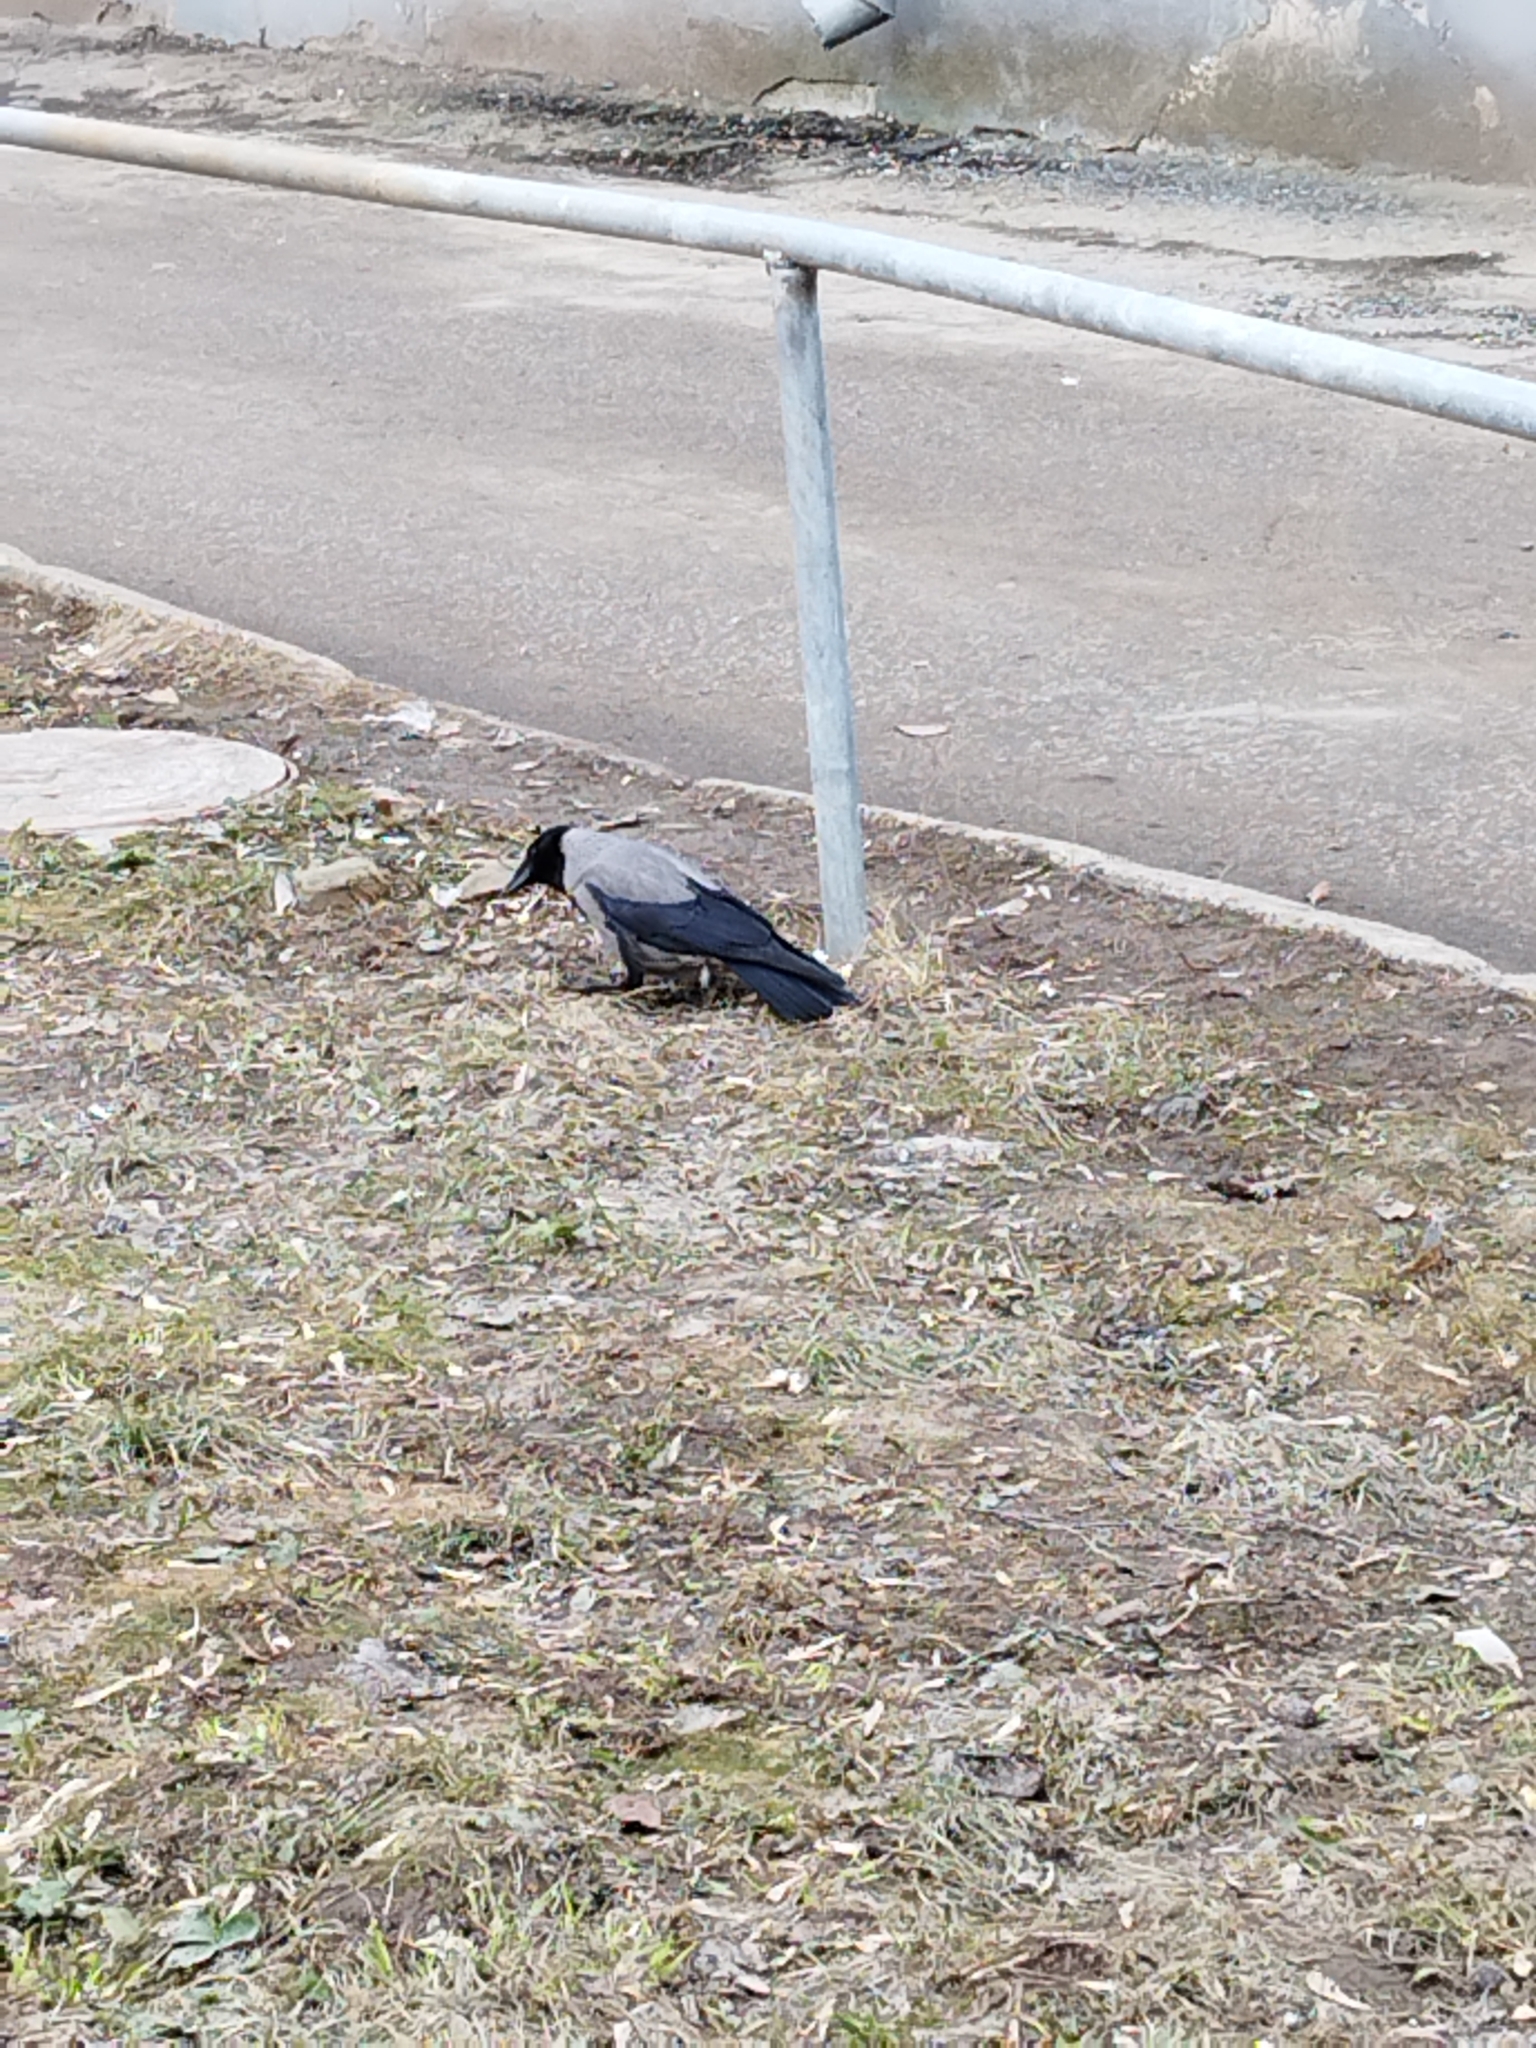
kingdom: Animalia
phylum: Chordata
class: Aves
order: Passeriformes
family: Corvidae
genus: Corvus
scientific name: Corvus cornix
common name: Hooded crow
